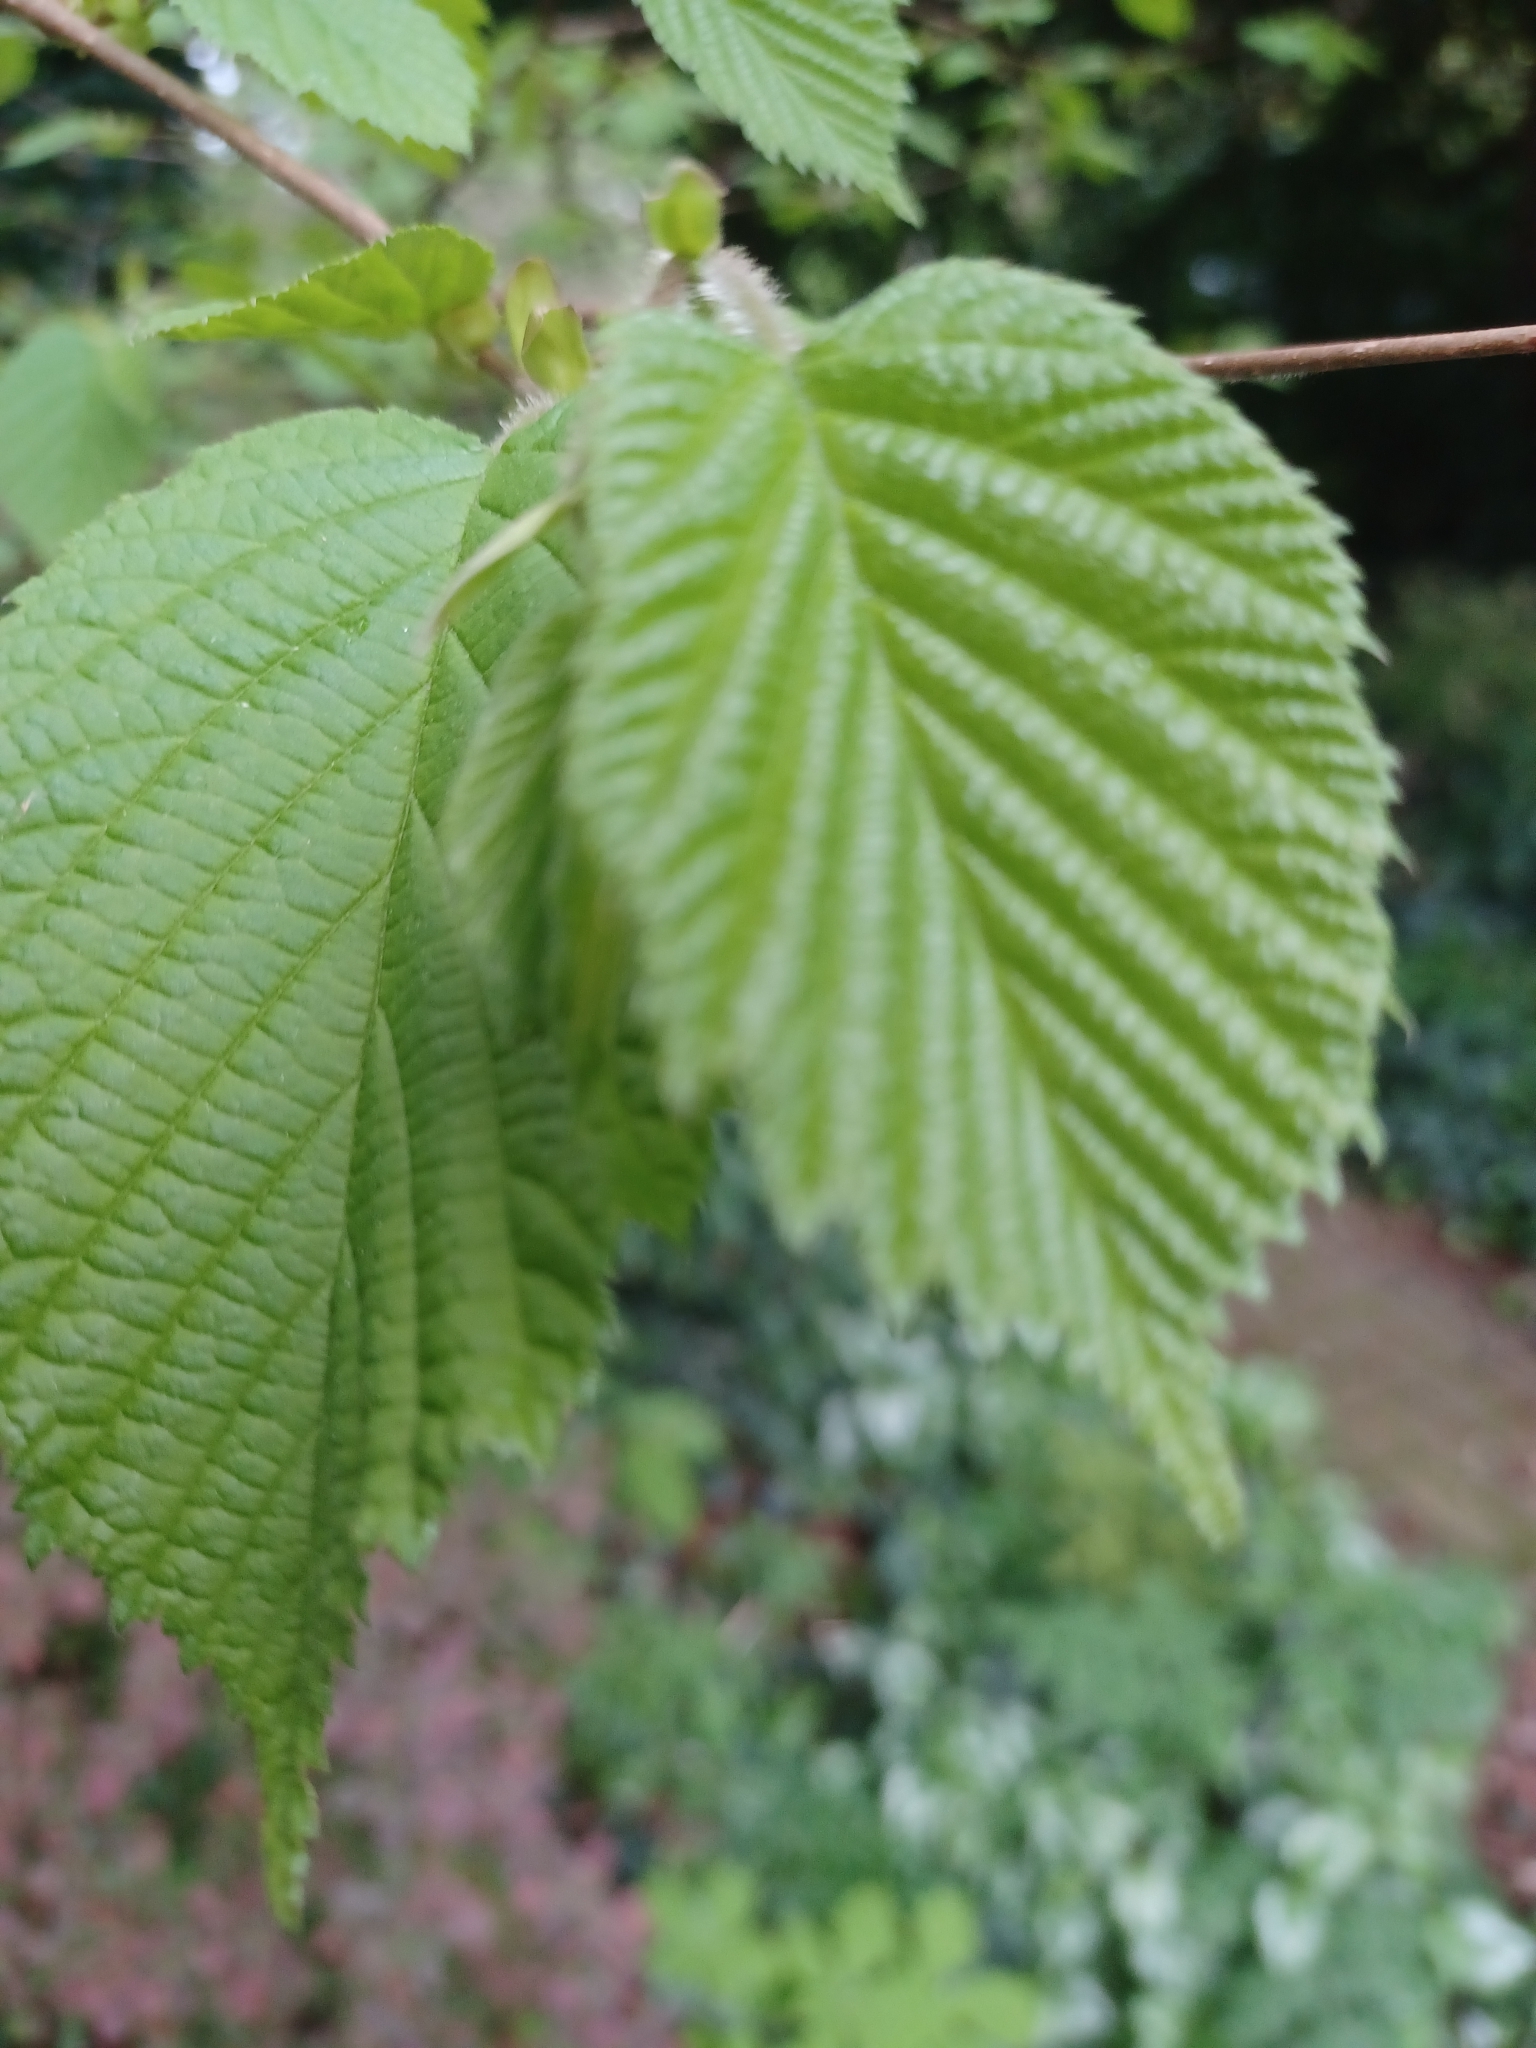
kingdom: Plantae
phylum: Tracheophyta
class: Magnoliopsida
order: Fagales
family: Betulaceae
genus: Corylus
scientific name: Corylus avellana
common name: European hazel
